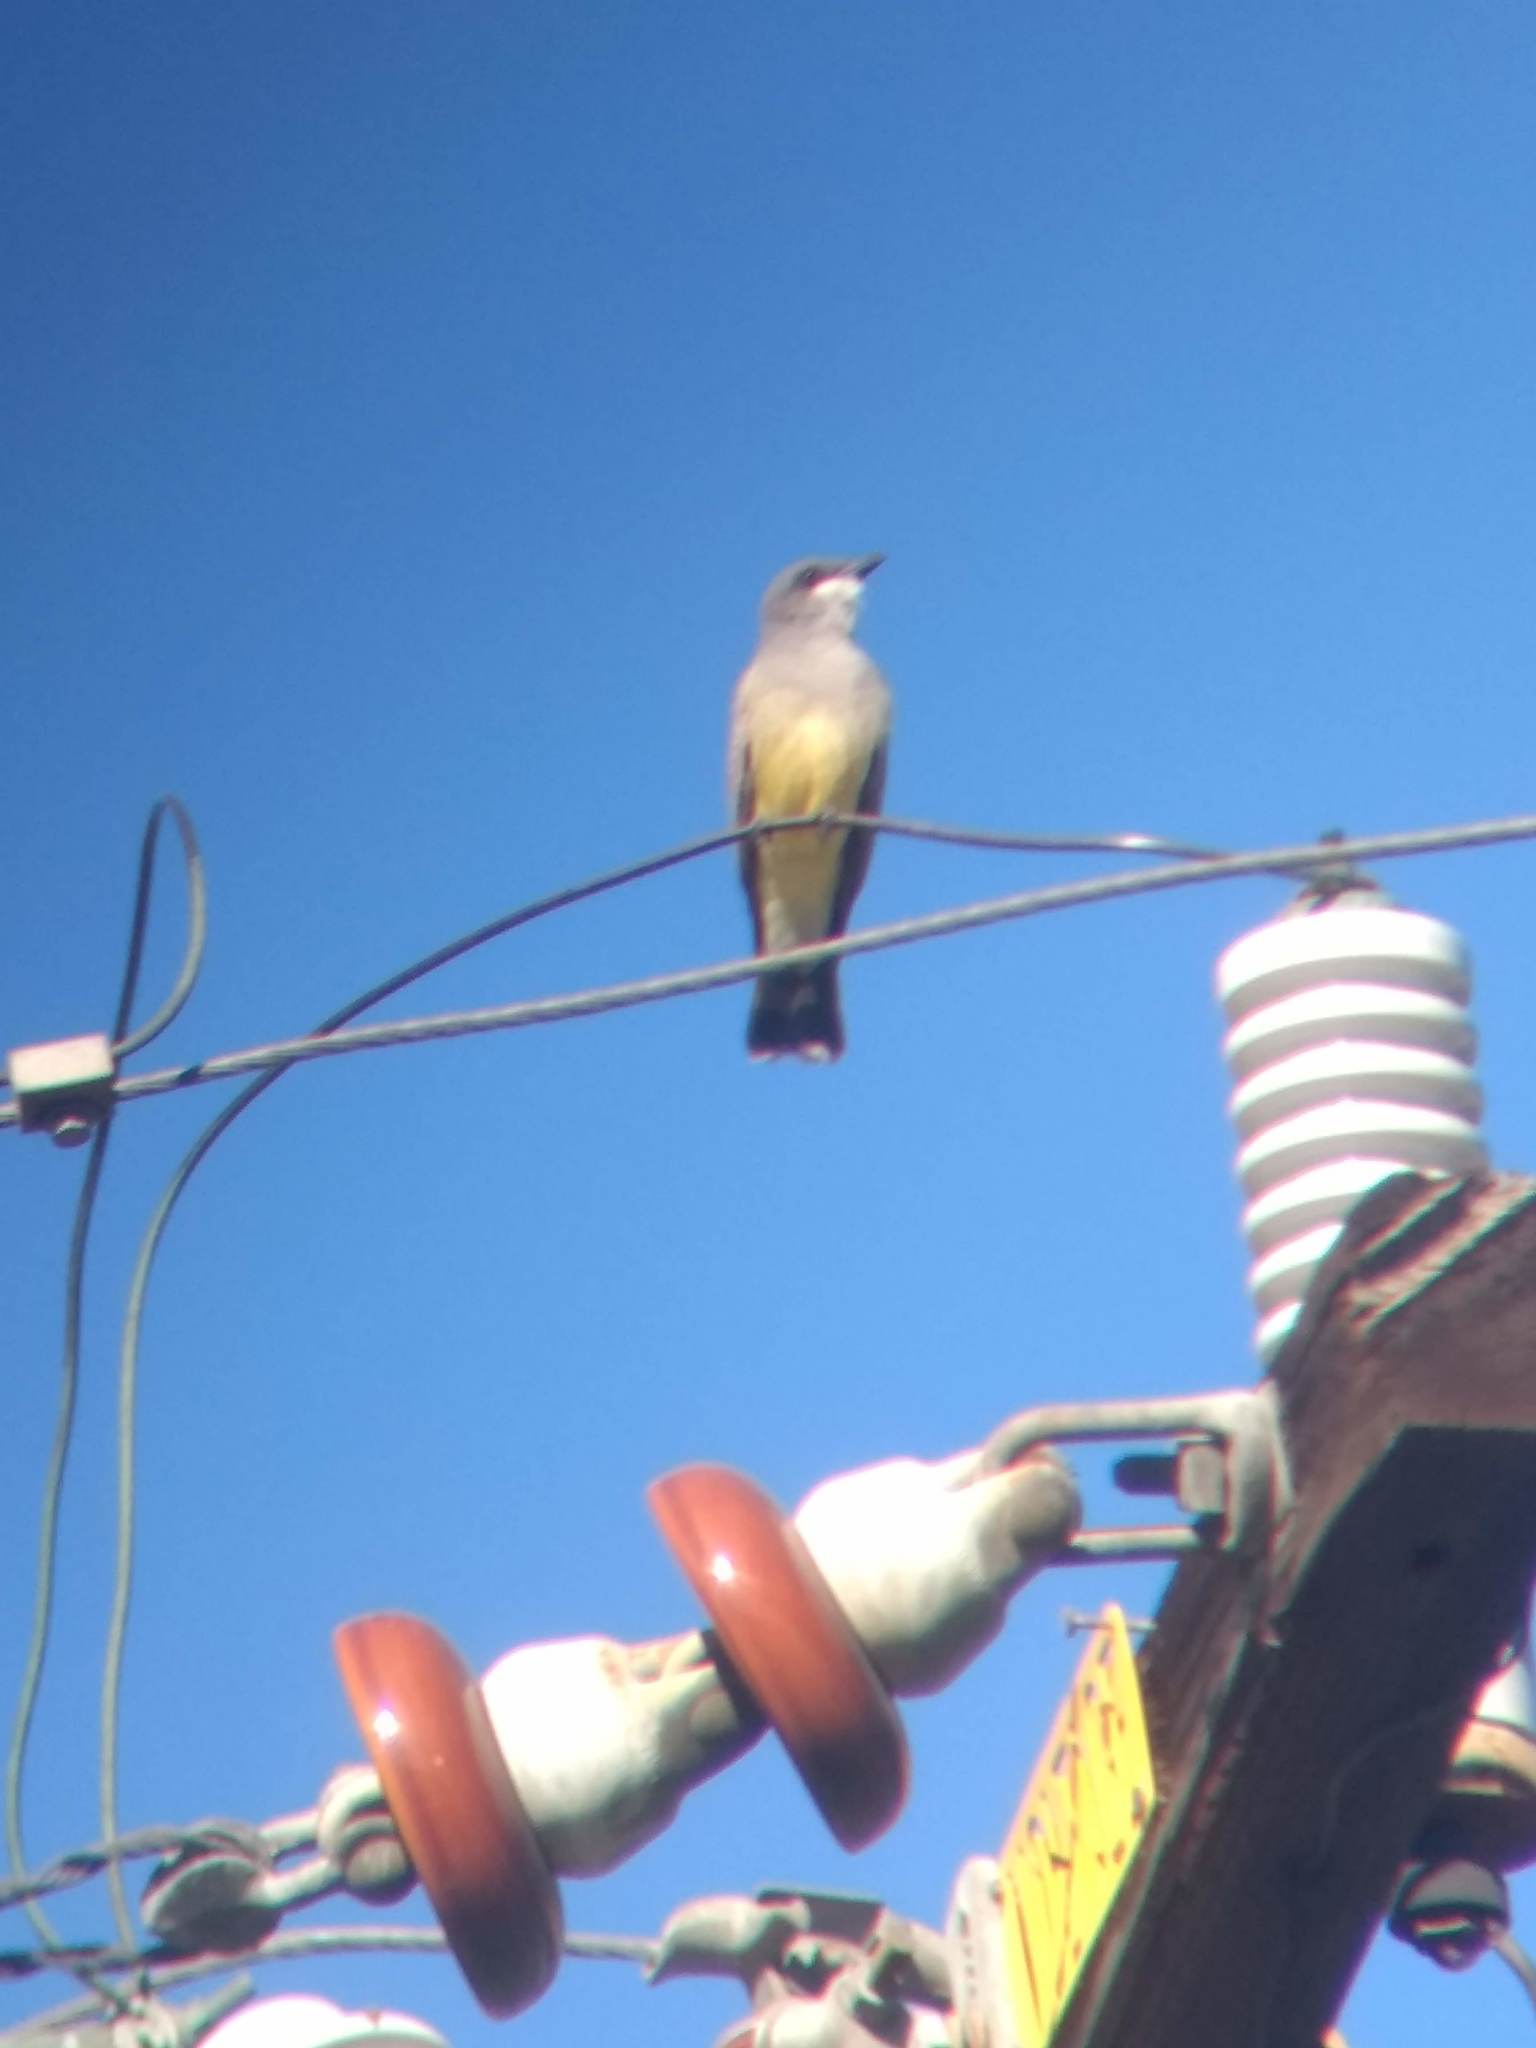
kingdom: Animalia
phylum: Chordata
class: Aves
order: Passeriformes
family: Tyrannidae
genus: Tyrannus
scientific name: Tyrannus vociferans
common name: Cassin's kingbird
